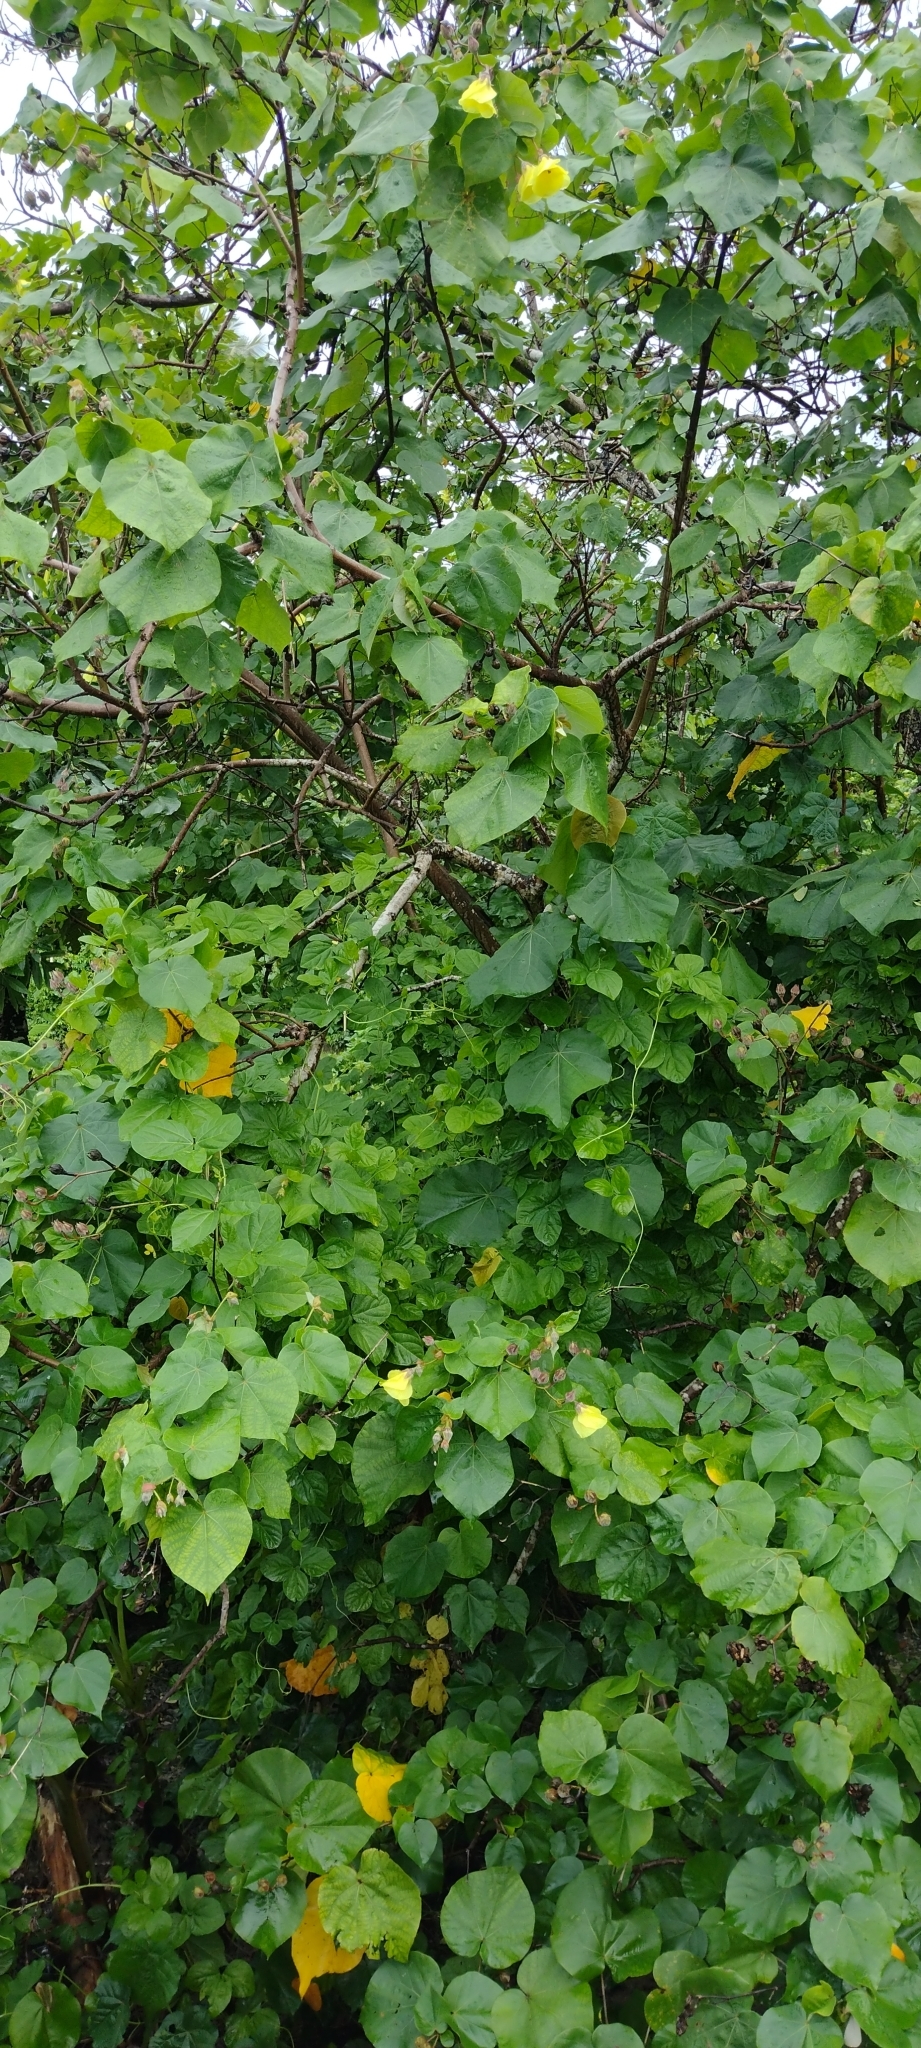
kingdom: Plantae
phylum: Tracheophyta
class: Magnoliopsida
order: Malvales
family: Malvaceae
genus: Talipariti
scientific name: Talipariti tiliaceum
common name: Sea hibiscus
